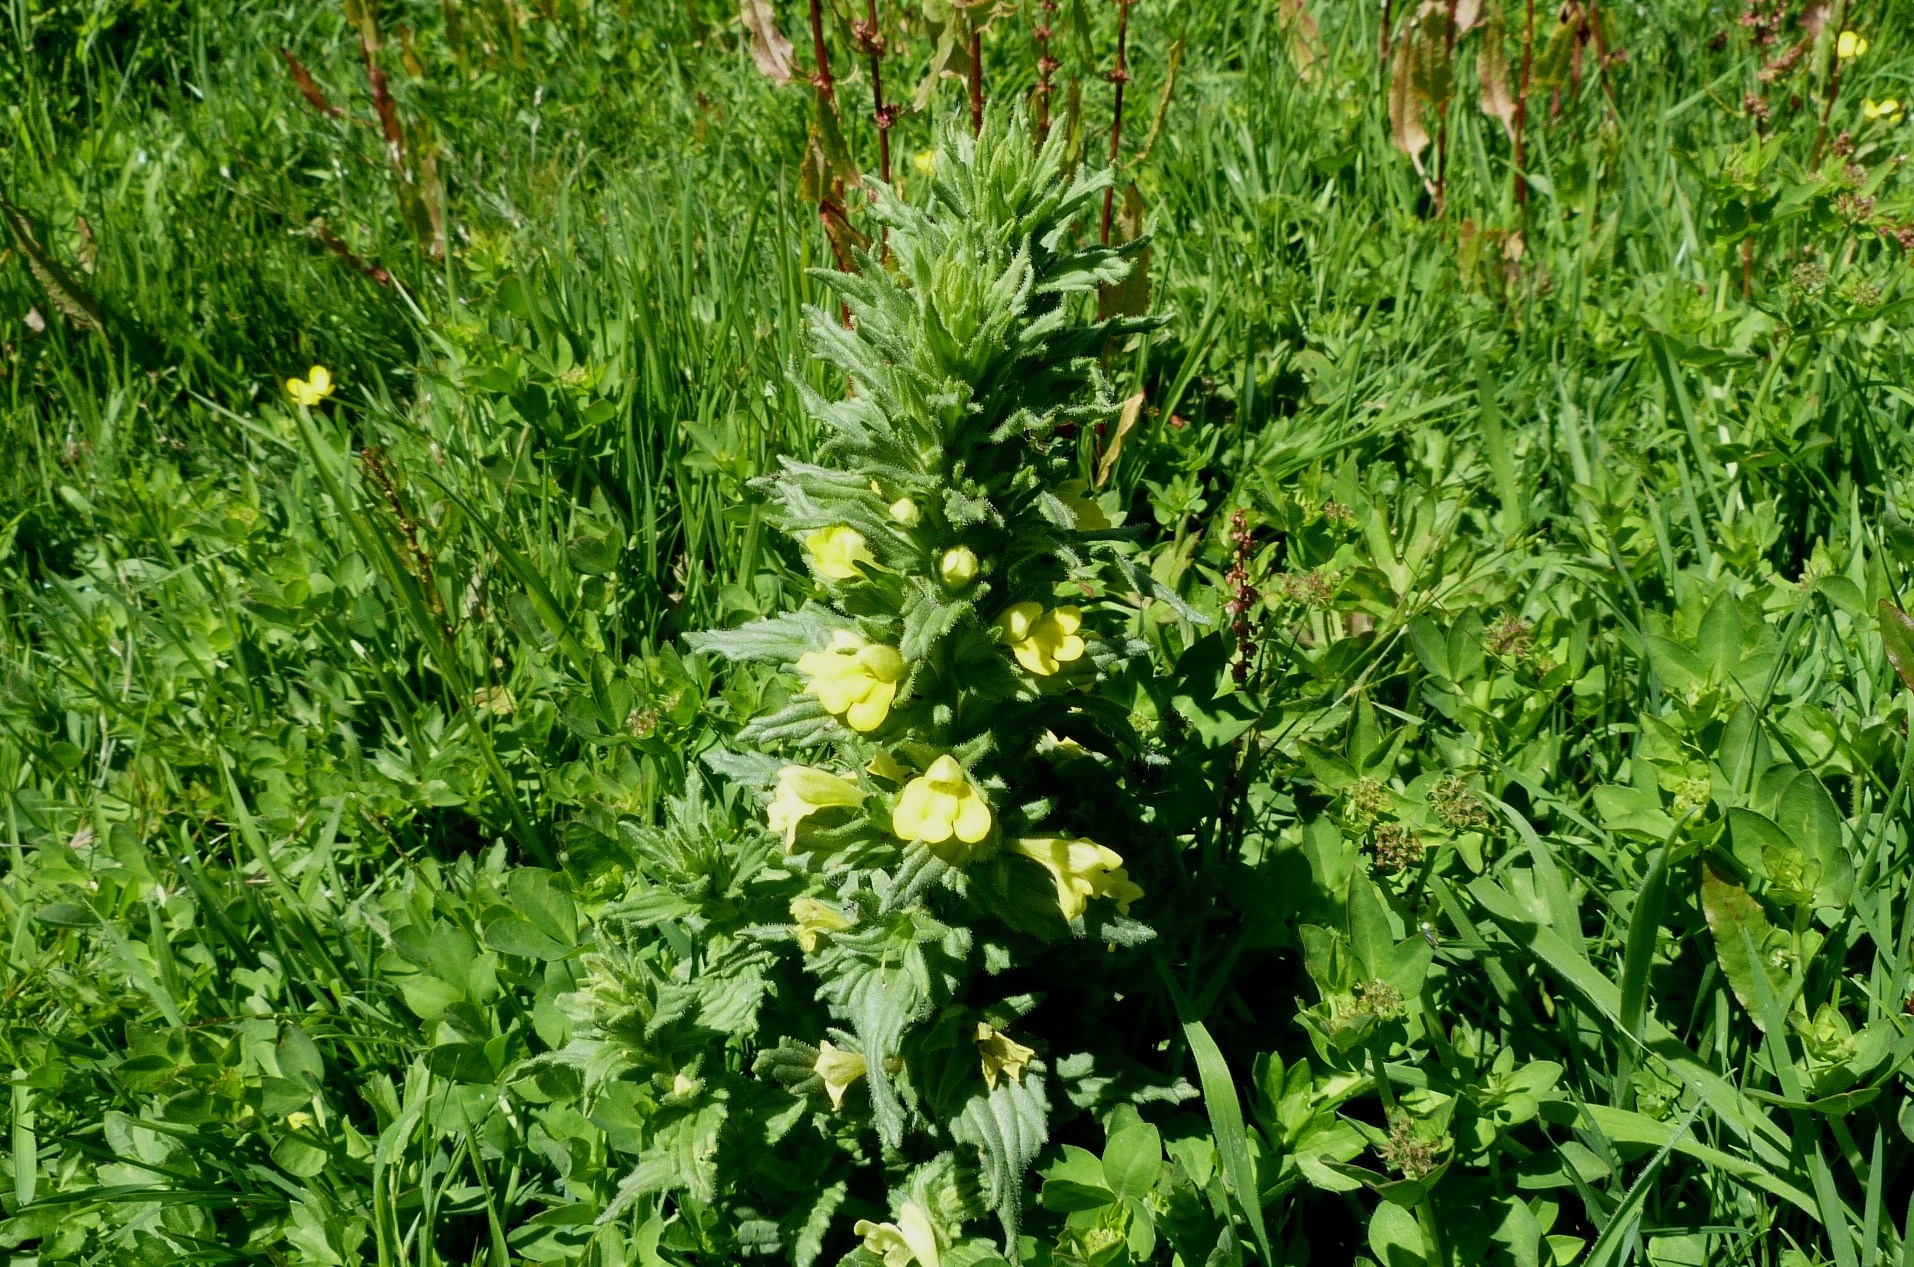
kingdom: Plantae
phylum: Tracheophyta
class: Magnoliopsida
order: Lamiales
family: Orobanchaceae
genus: Bellardia
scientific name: Bellardia viscosa
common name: Sticky parentucellia
